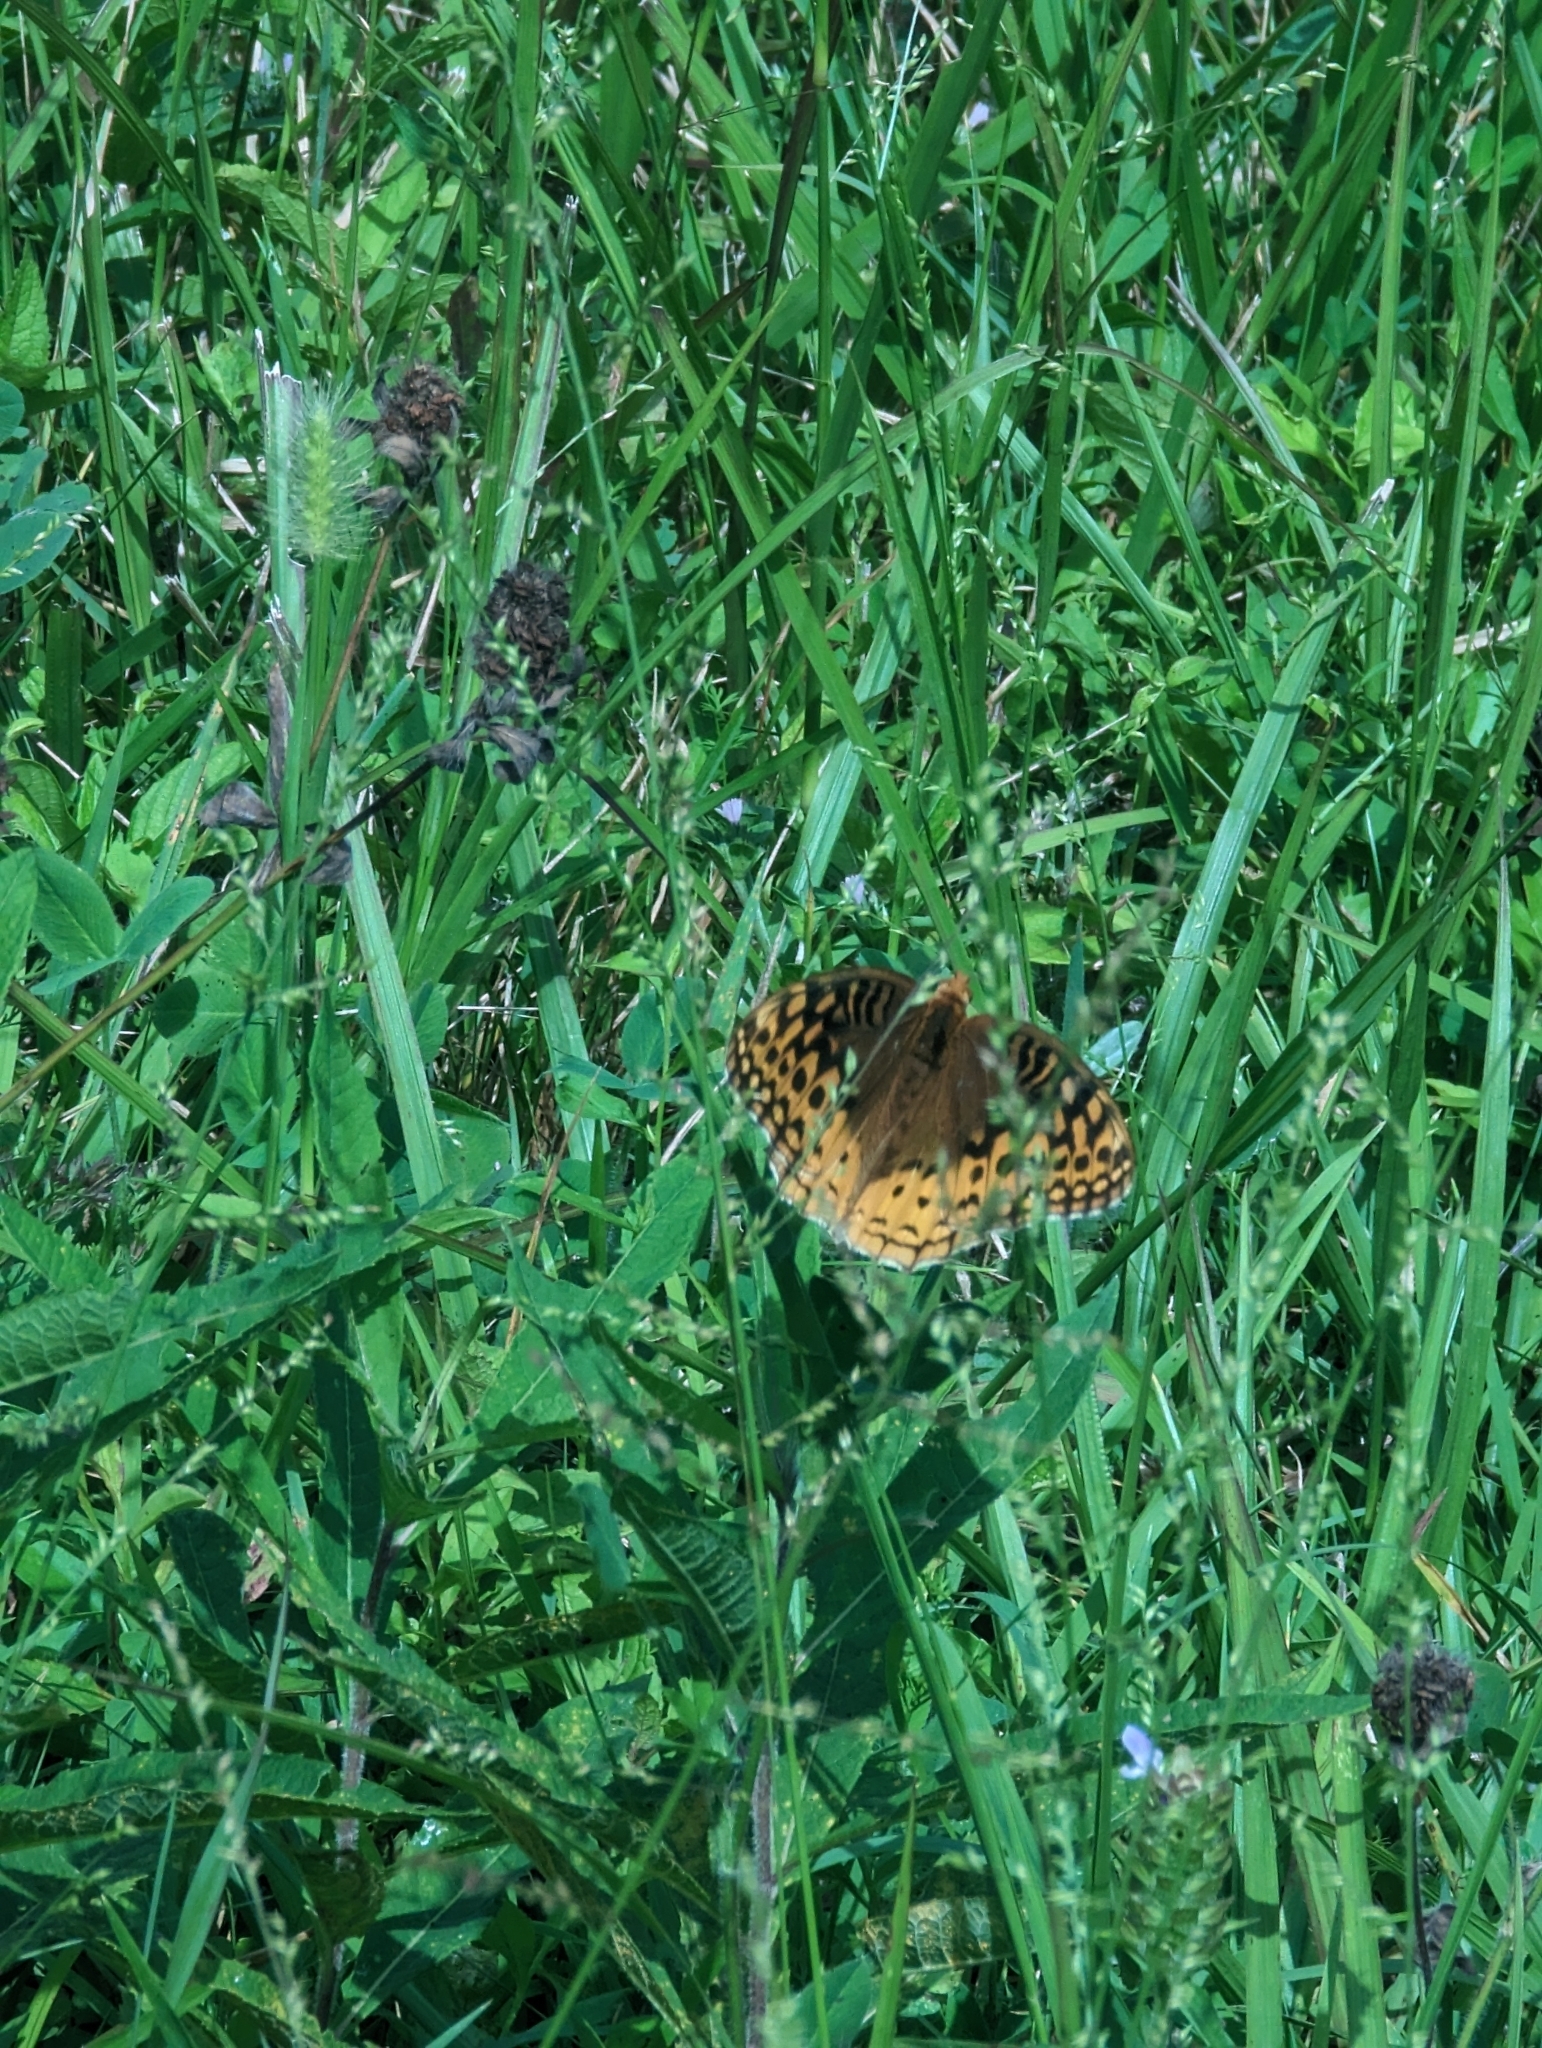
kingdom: Animalia
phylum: Arthropoda
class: Insecta
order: Lepidoptera
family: Nymphalidae
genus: Speyeria
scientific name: Speyeria cybele
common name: Great spangled fritillary
